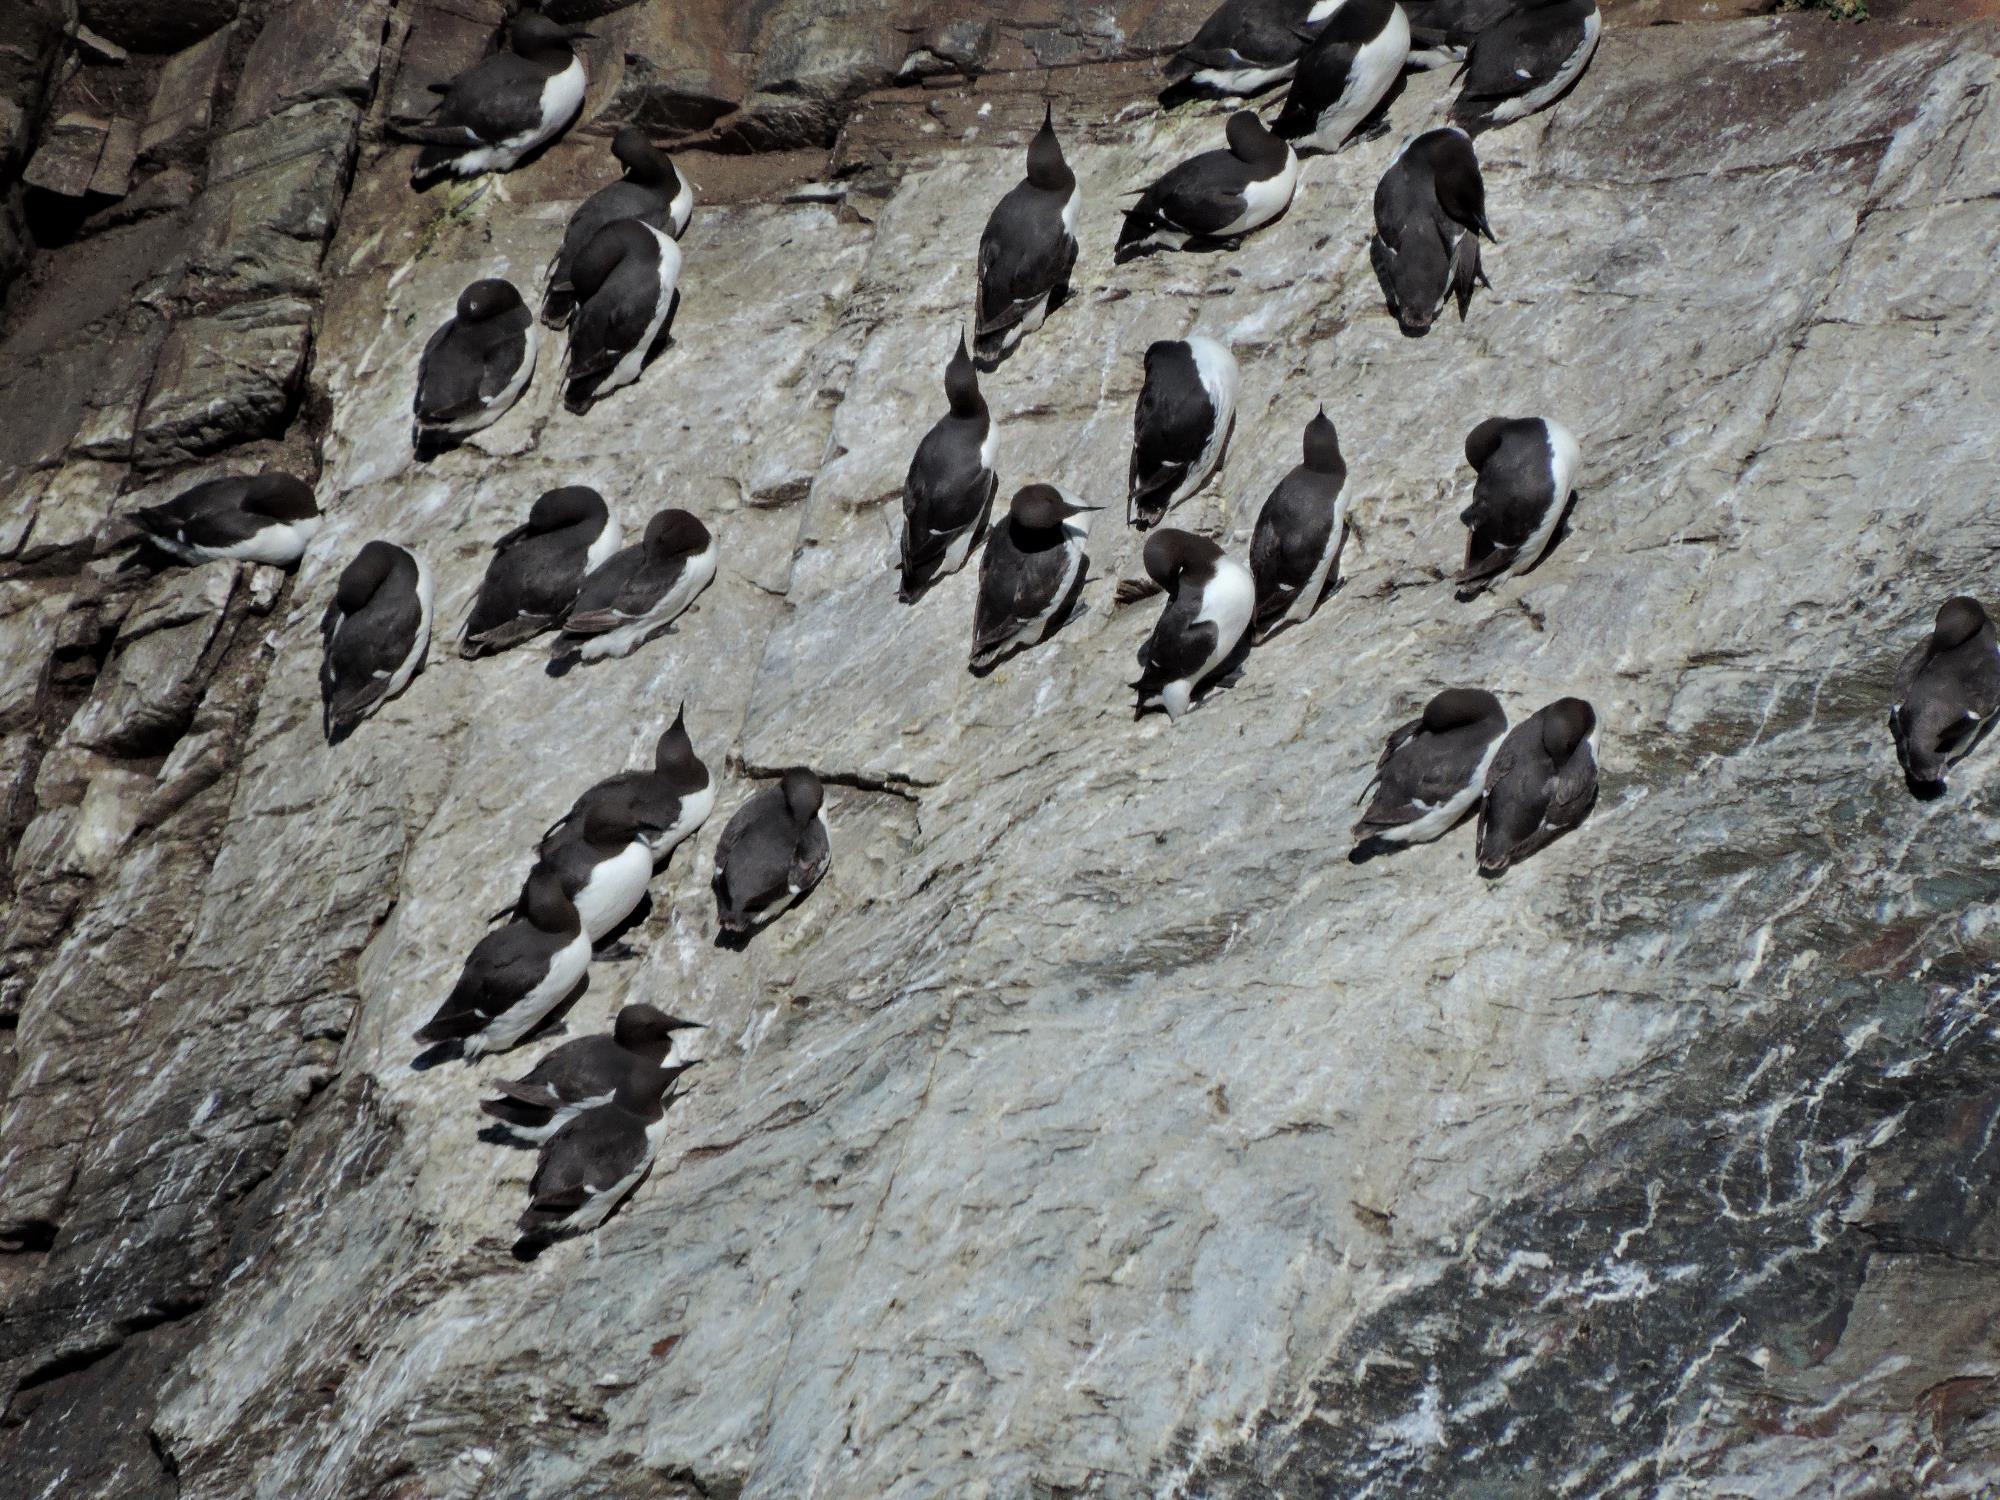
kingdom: Animalia
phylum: Chordata
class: Aves
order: Charadriiformes
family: Alcidae
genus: Uria
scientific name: Uria aalge
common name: Common murre
